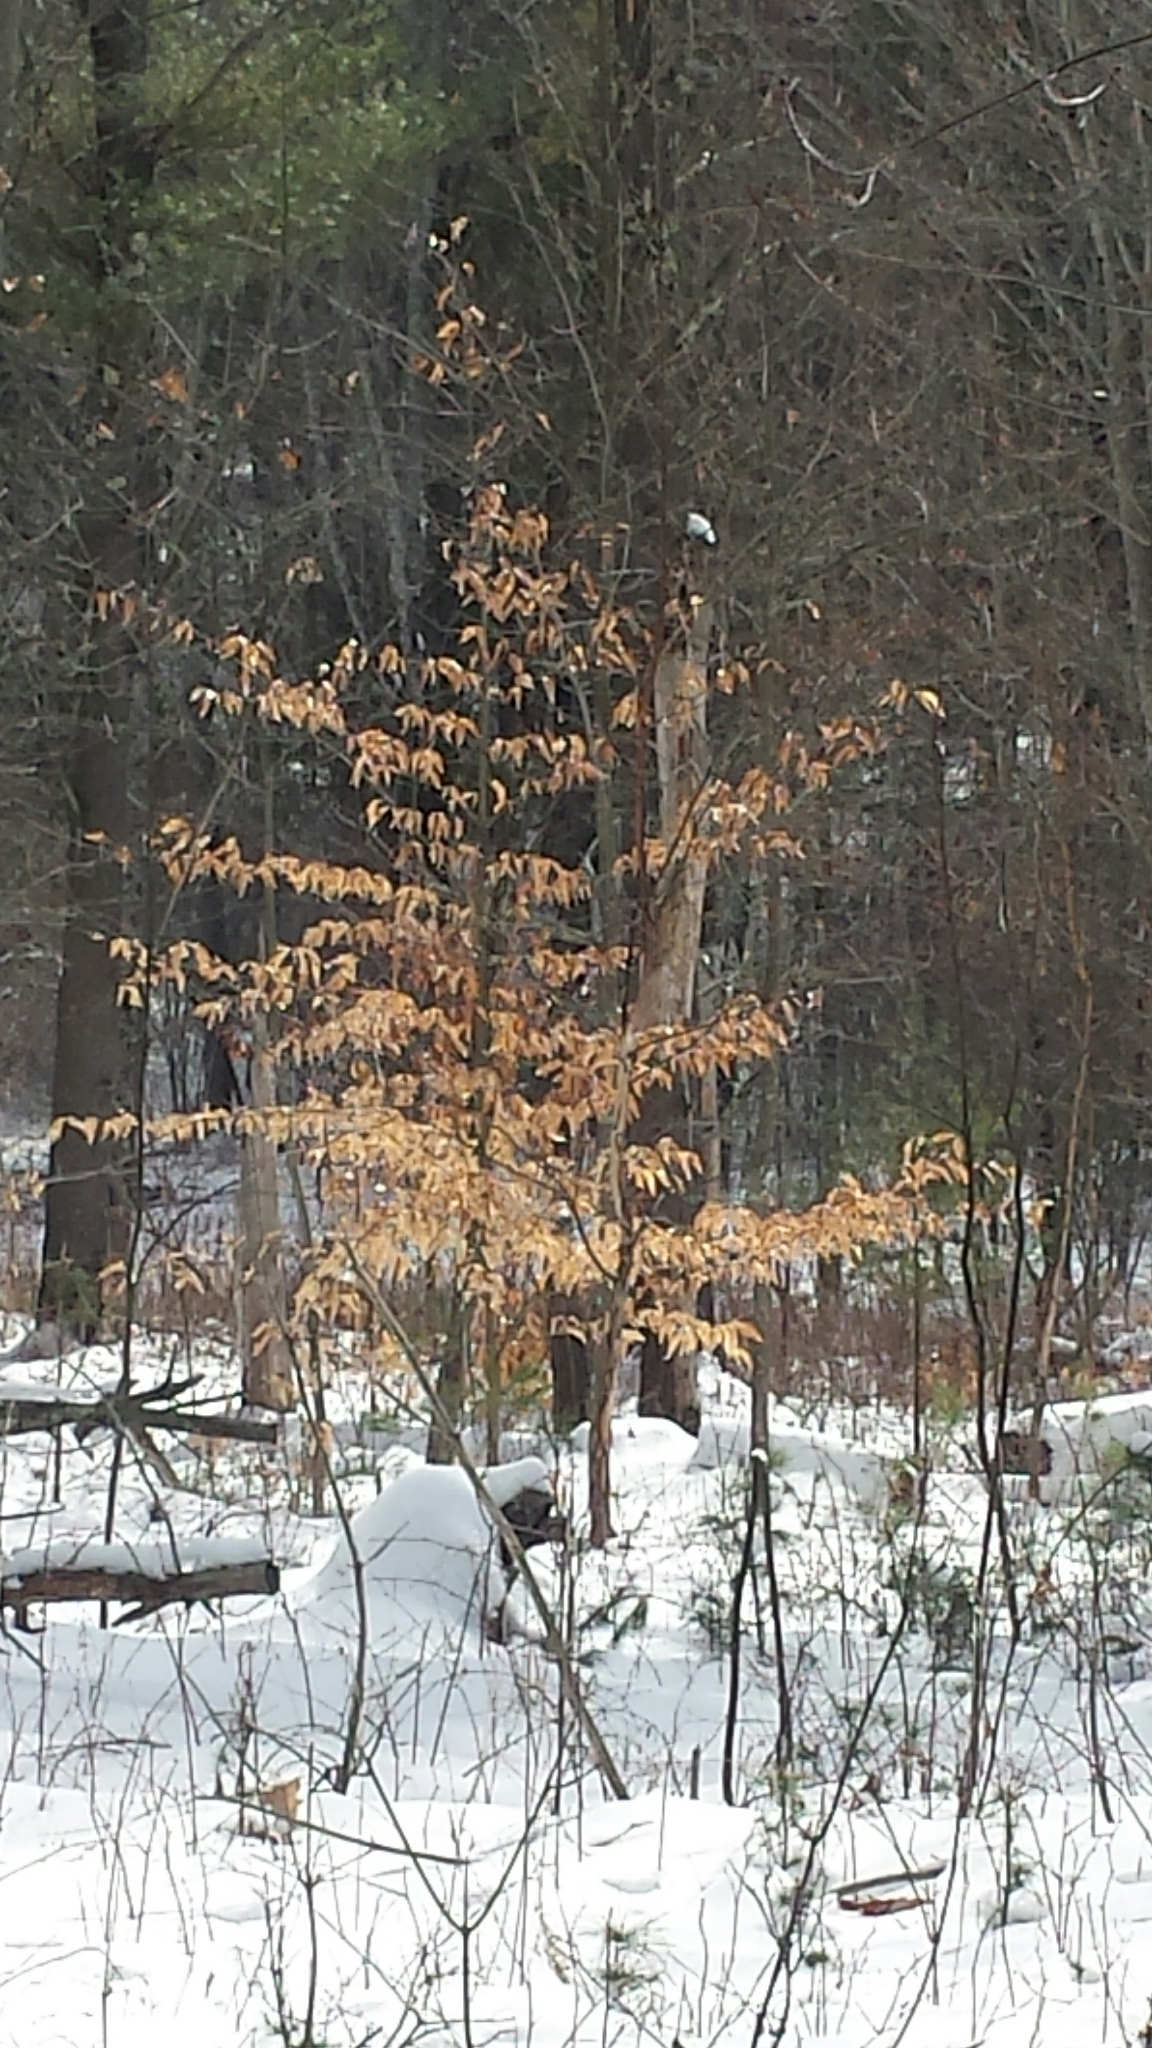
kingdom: Plantae
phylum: Tracheophyta
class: Magnoliopsida
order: Fagales
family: Fagaceae
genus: Fagus
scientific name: Fagus grandifolia
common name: American beech
